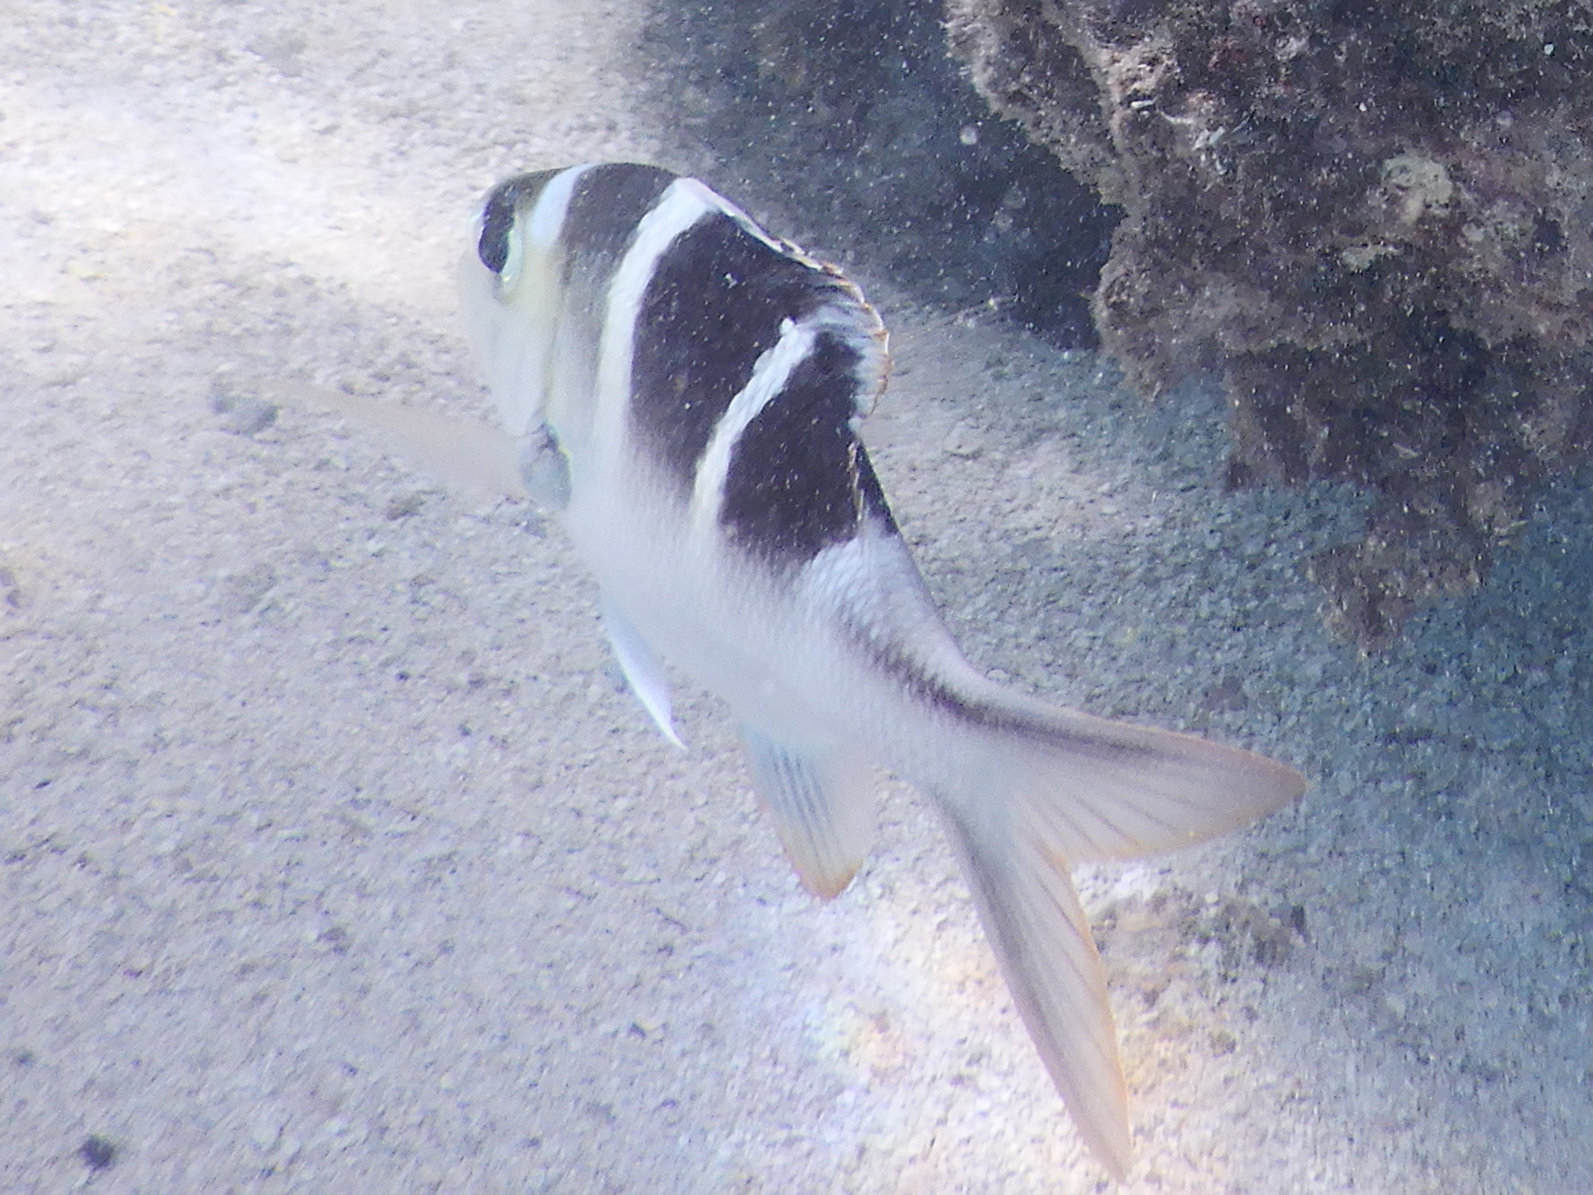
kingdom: Animalia
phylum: Chordata
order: Perciformes
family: Lethrinidae
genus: Monotaxis
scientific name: Monotaxis grandoculis
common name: Bigeye emperor
